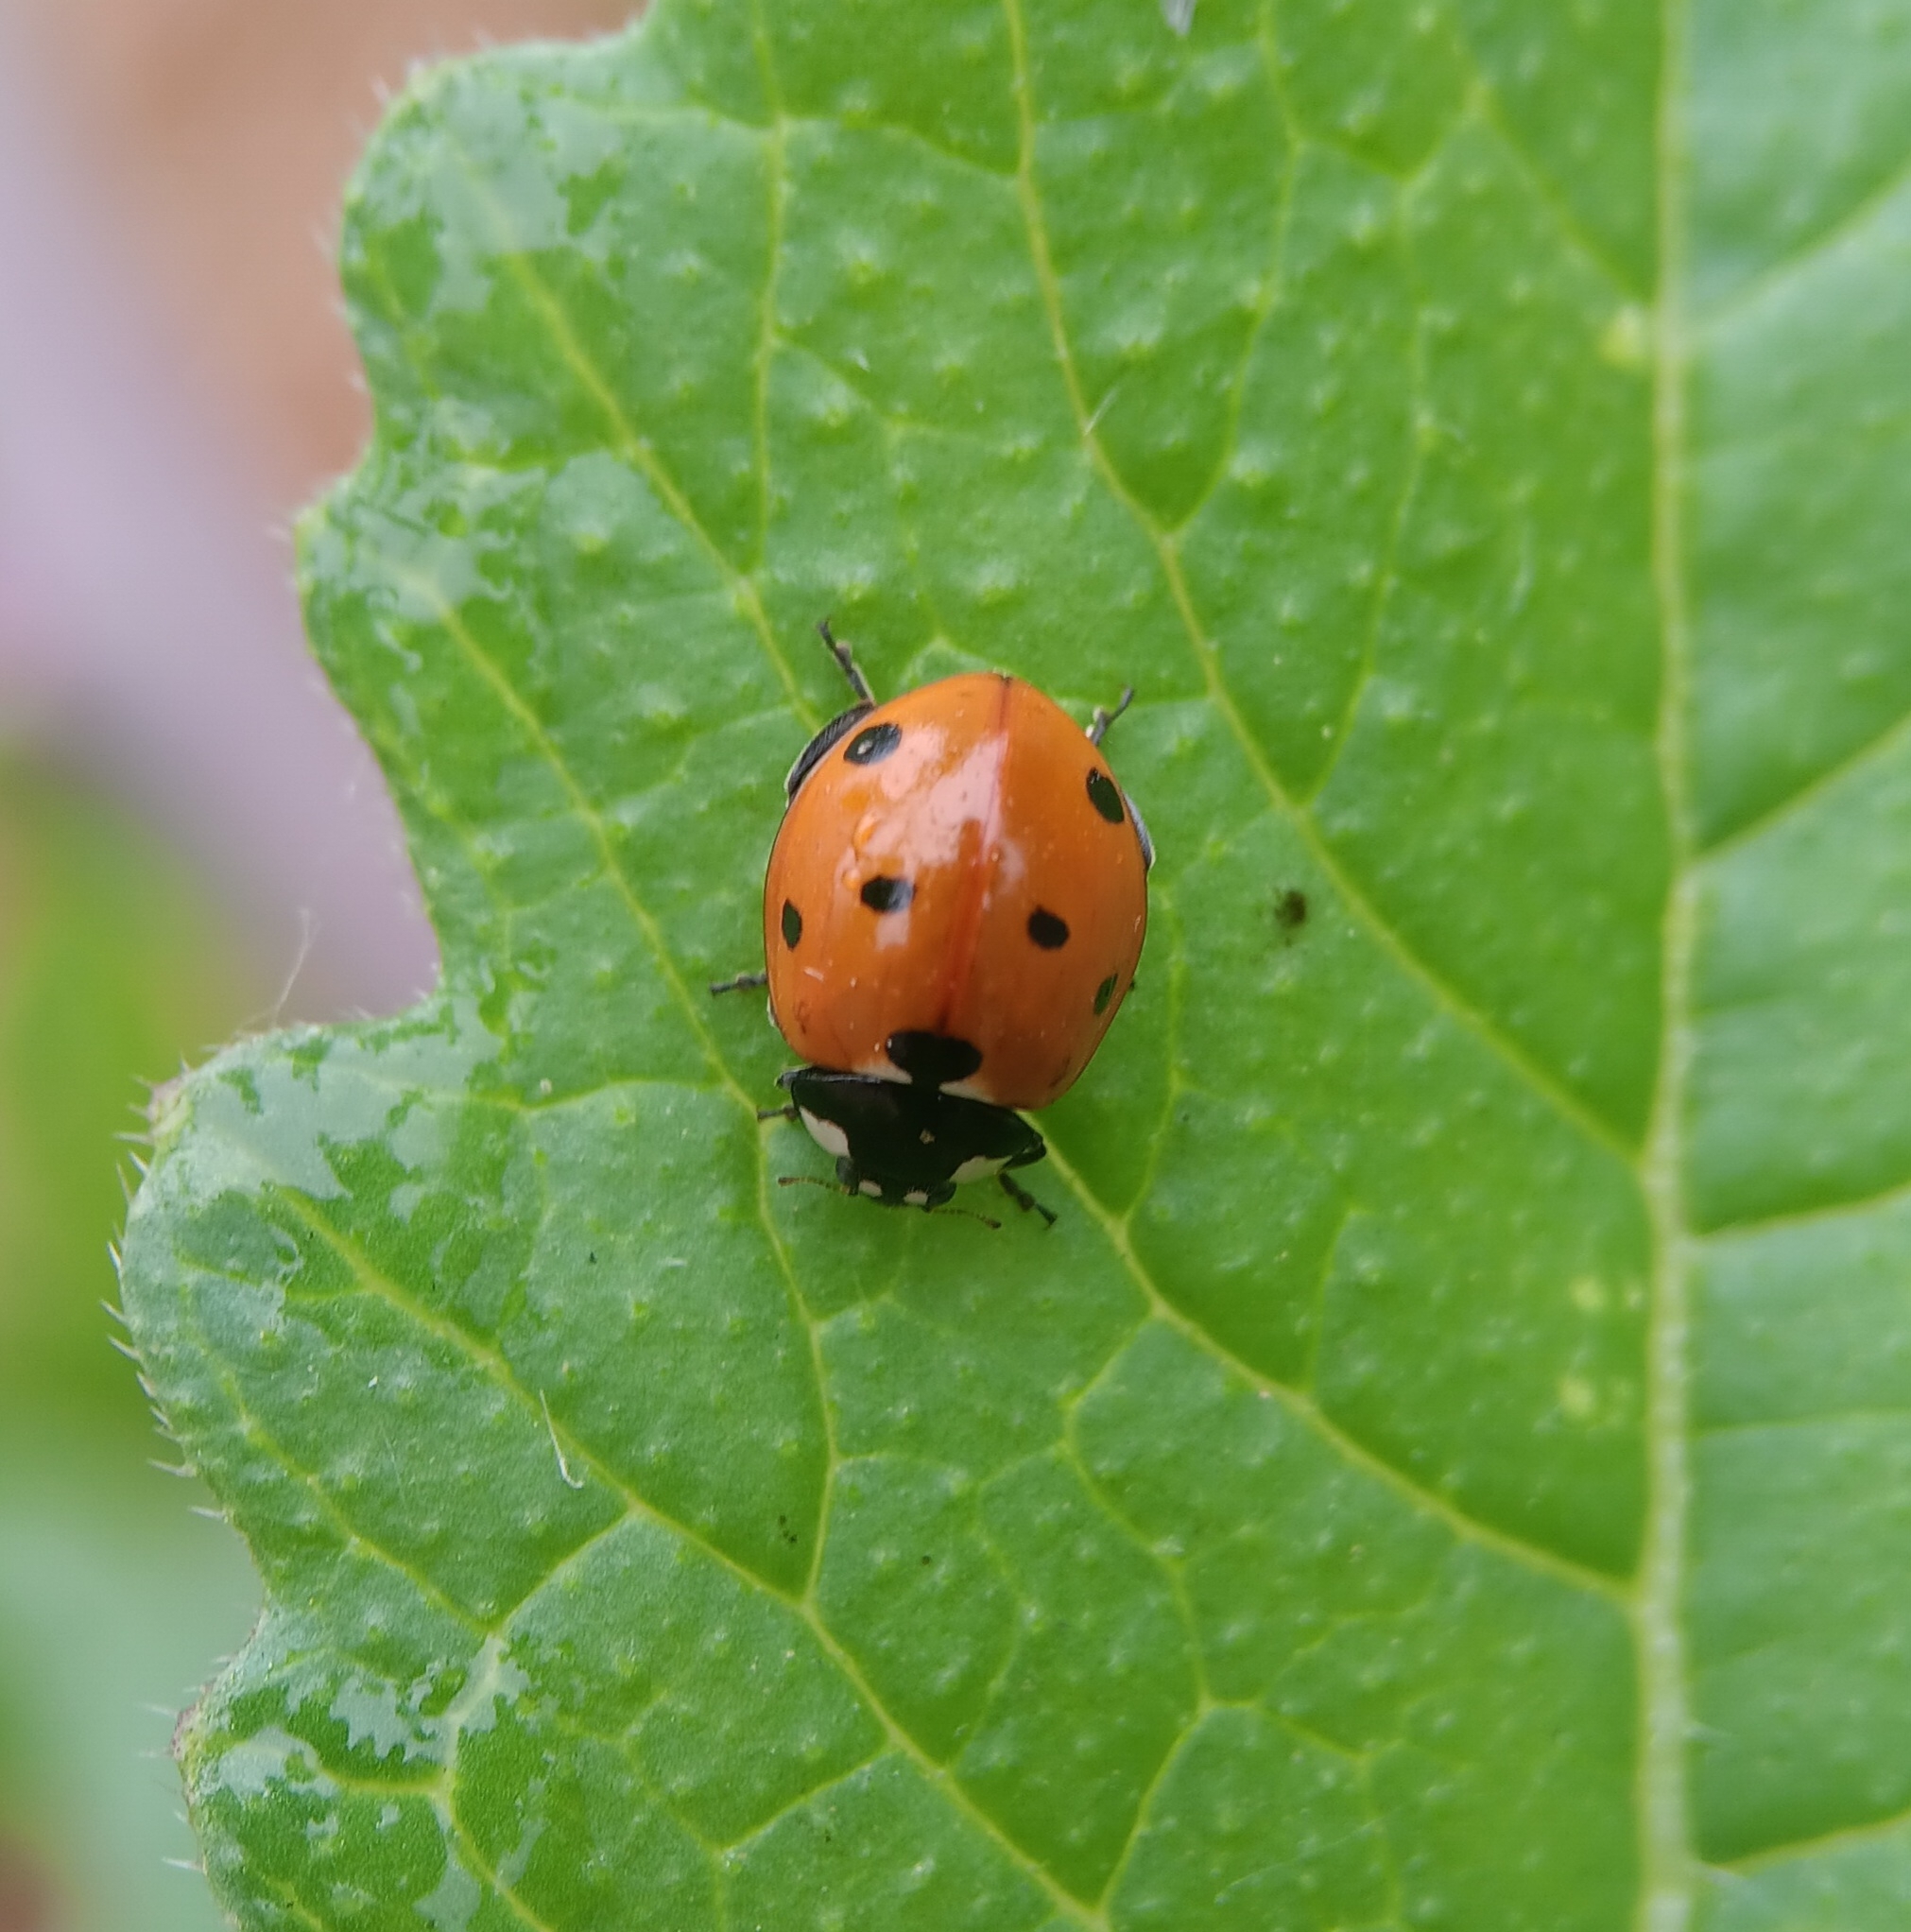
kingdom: Animalia
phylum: Arthropoda
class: Insecta
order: Coleoptera
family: Coccinellidae
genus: Coccinella
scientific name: Coccinella septempunctata
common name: Sevenspotted lady beetle
